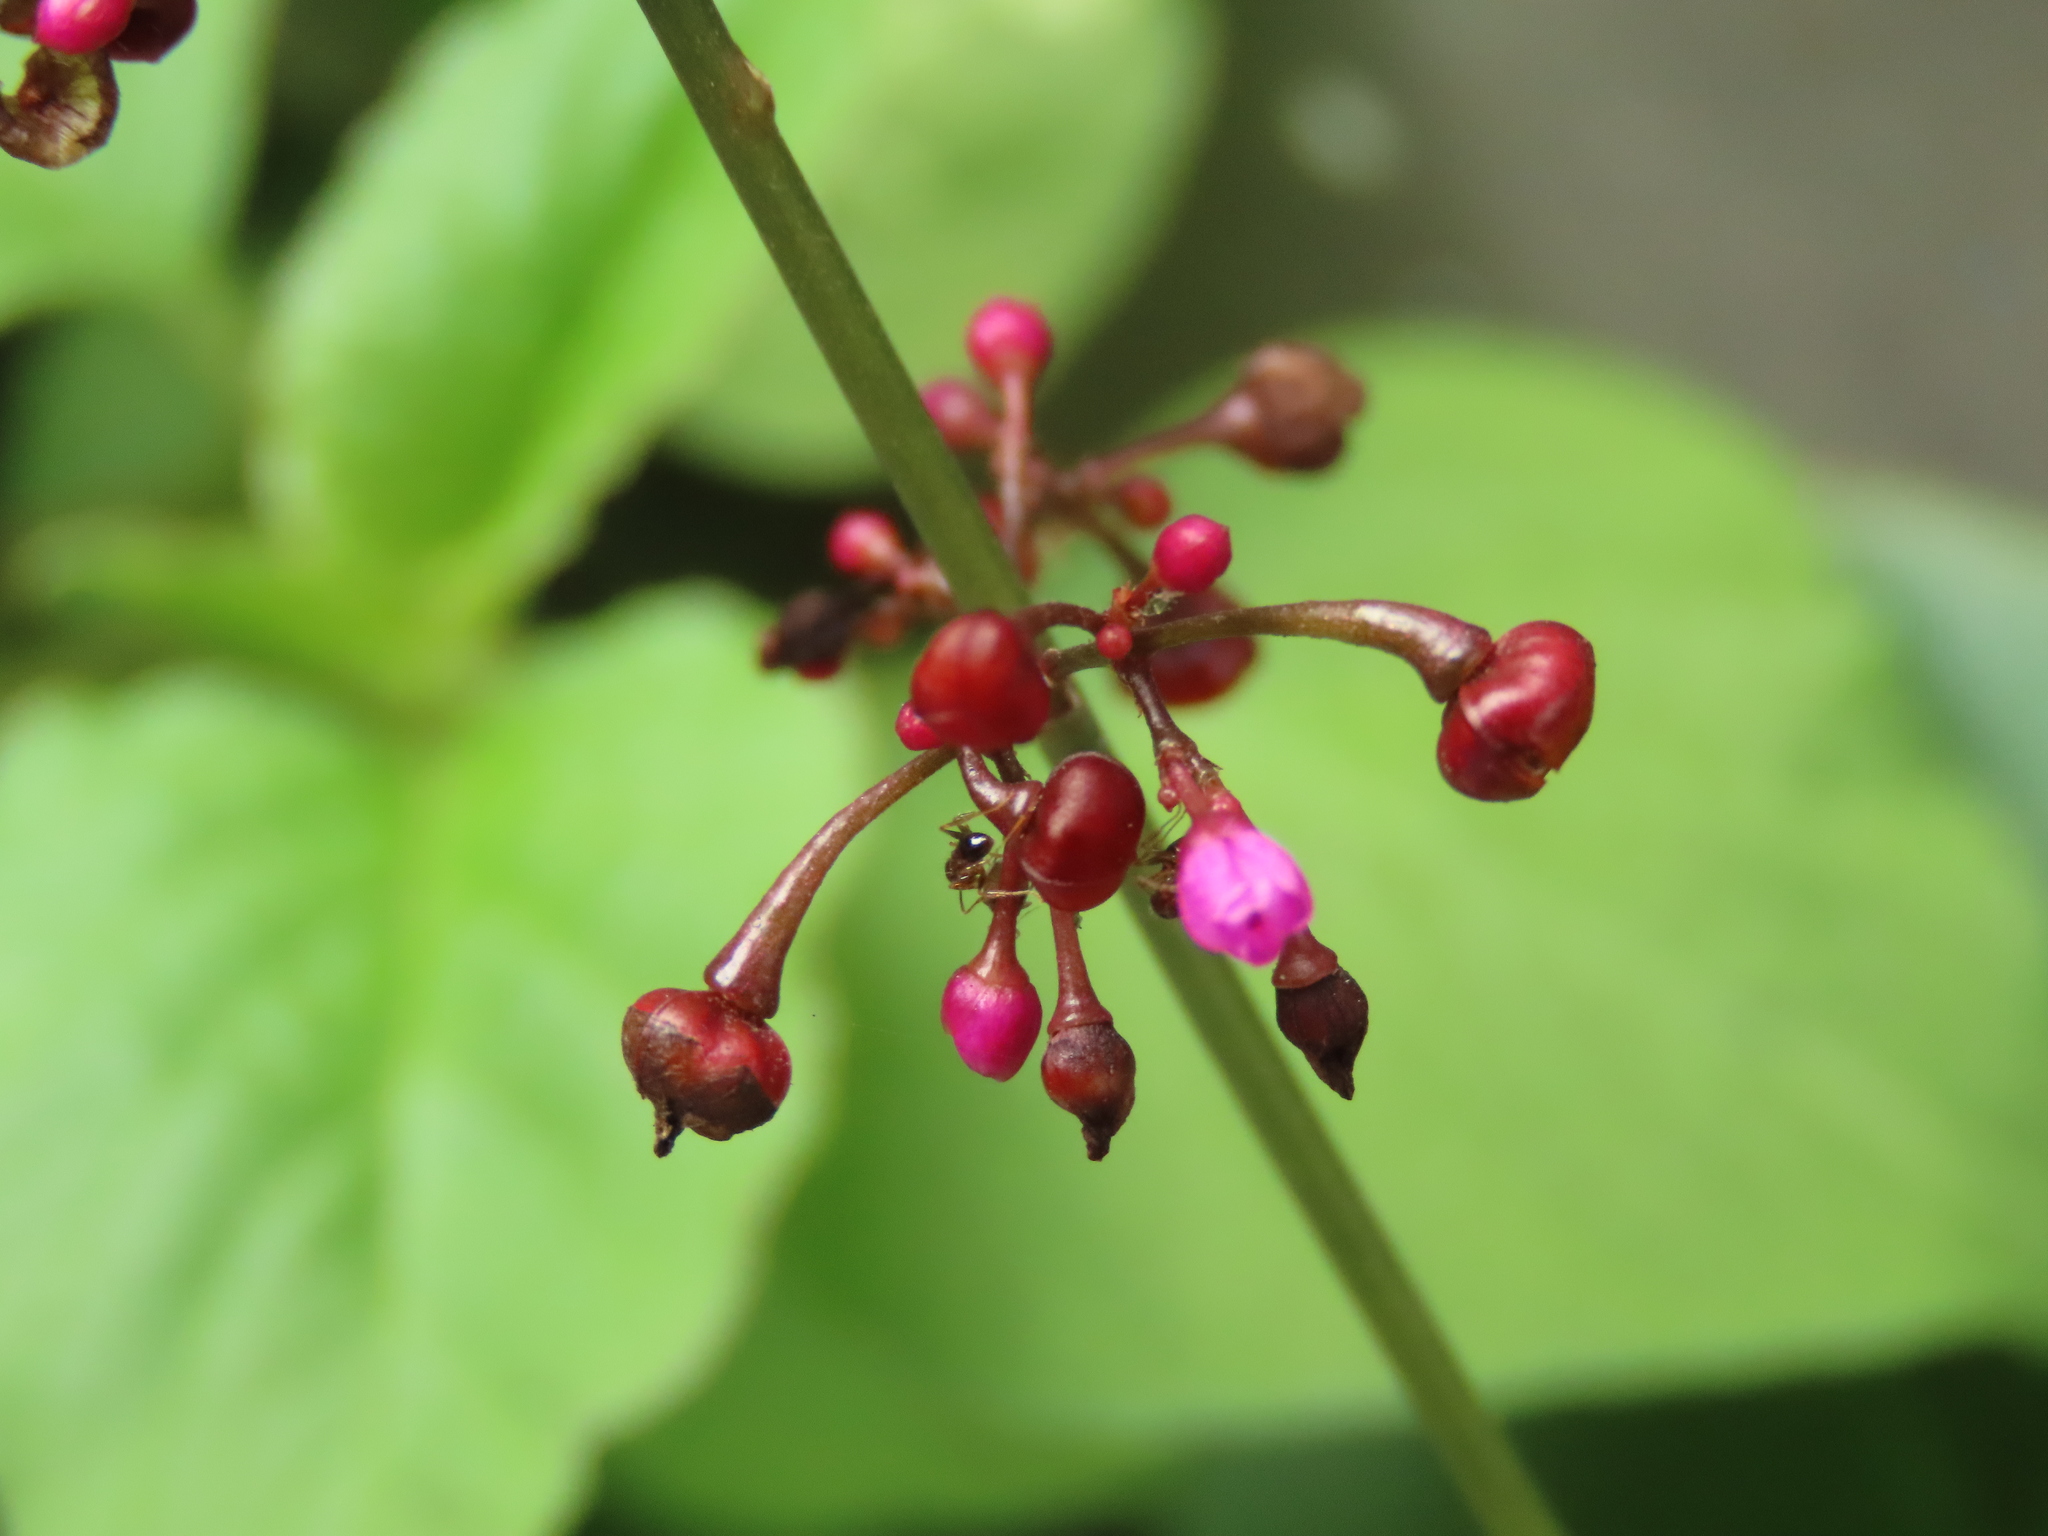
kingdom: Plantae
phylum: Tracheophyta
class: Magnoliopsida
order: Caryophyllales
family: Talinaceae
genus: Talinum
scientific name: Talinum paniculatum
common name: Jewels of opar
